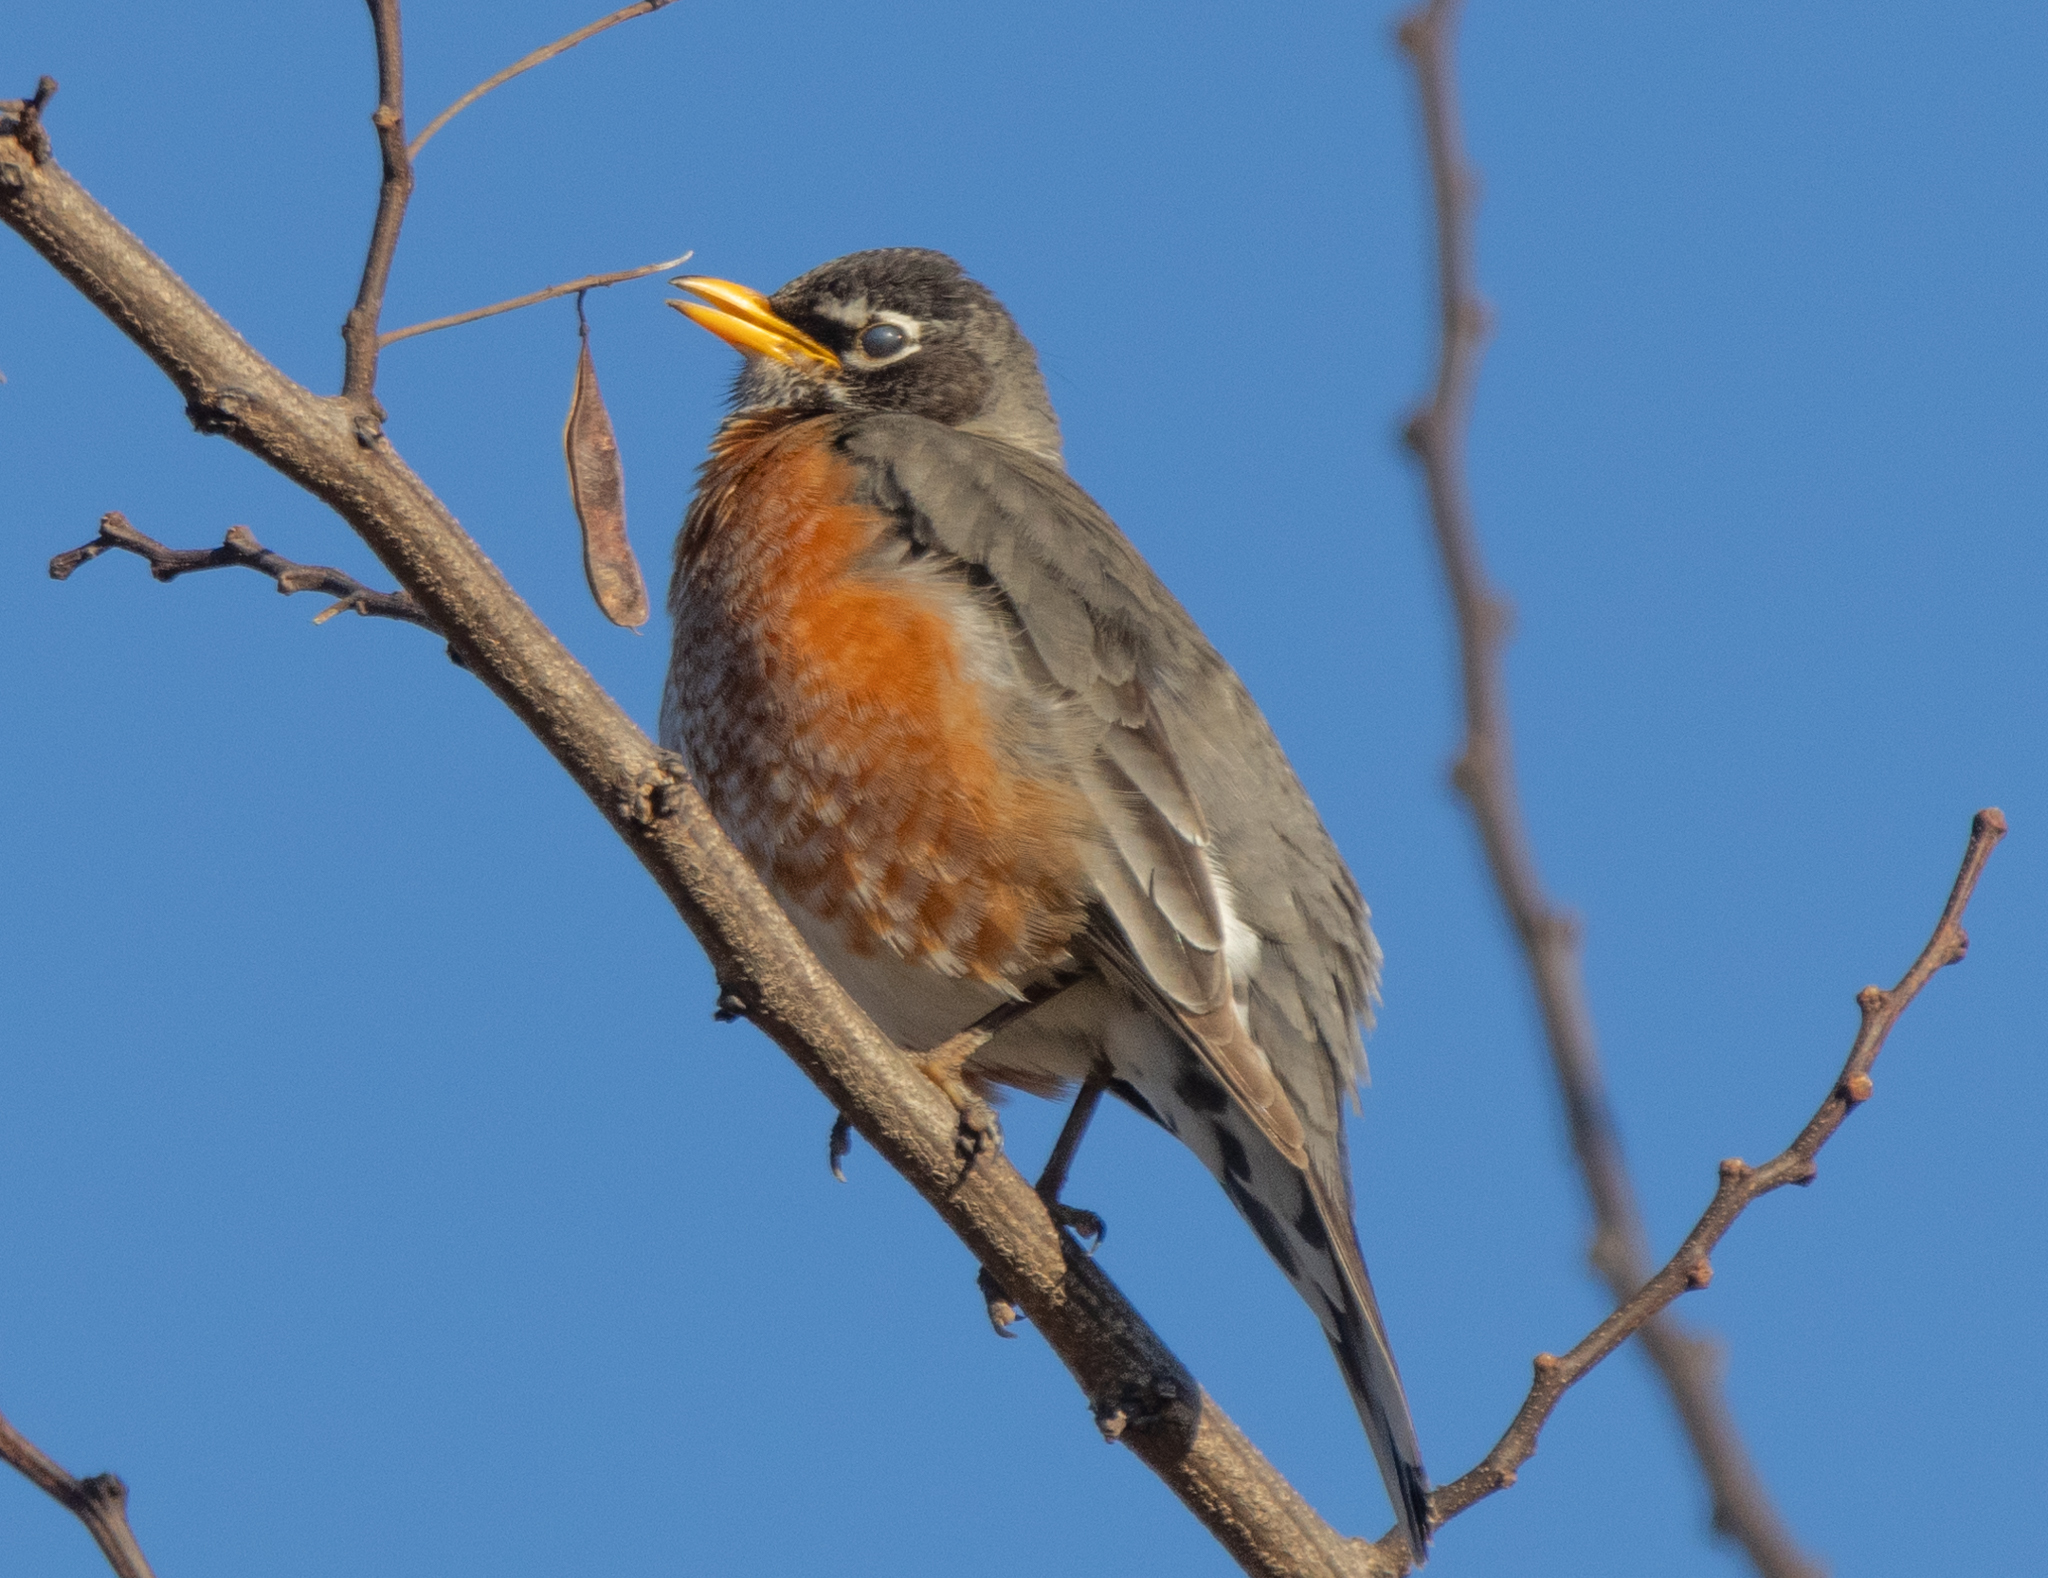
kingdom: Animalia
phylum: Chordata
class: Aves
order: Passeriformes
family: Turdidae
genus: Turdus
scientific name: Turdus migratorius
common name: American robin
